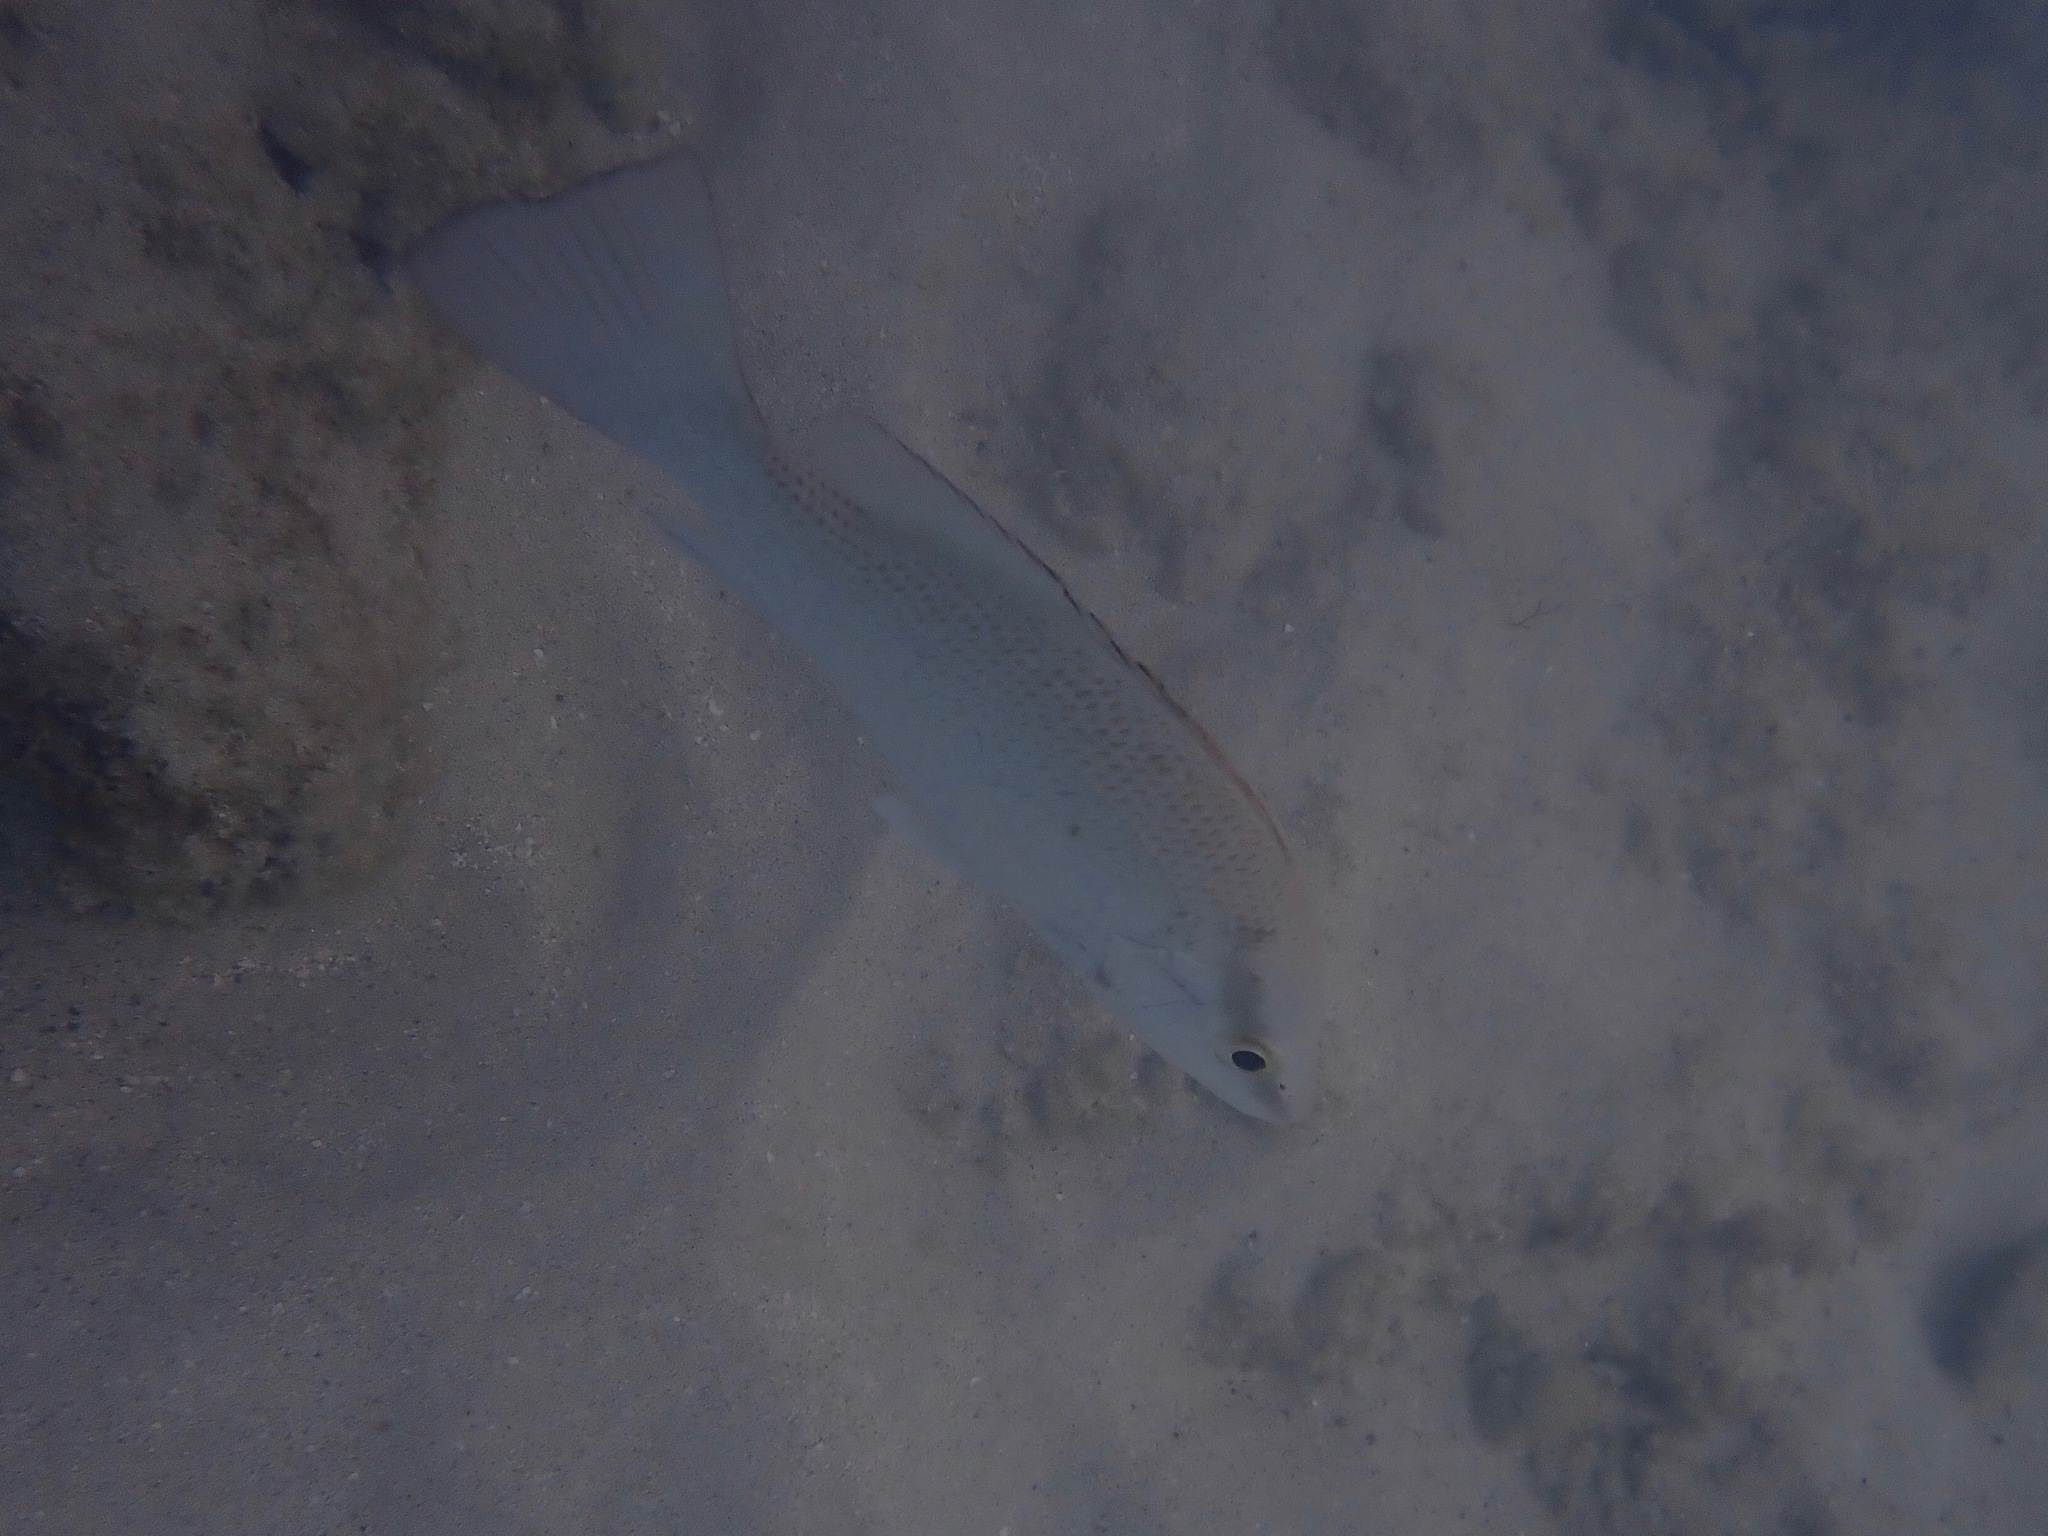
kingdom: Animalia
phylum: Chordata
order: Perciformes
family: Lutjanidae
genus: Lutjanus
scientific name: Lutjanus griseus
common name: Gray snapper
